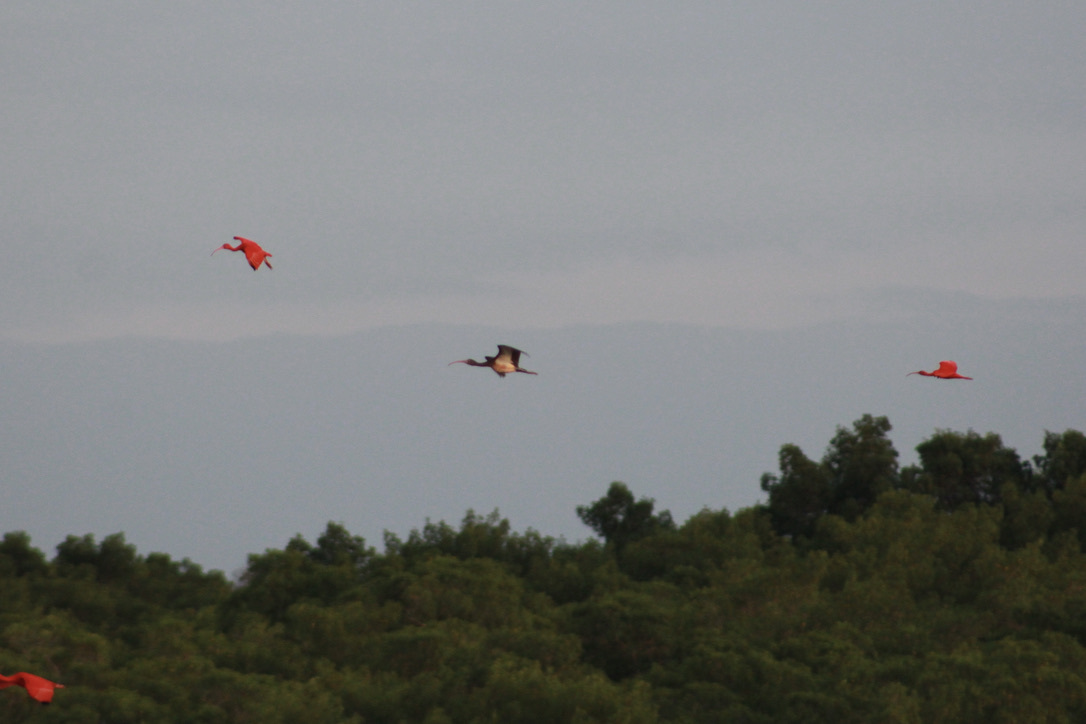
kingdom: Animalia
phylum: Chordata
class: Aves
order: Pelecaniformes
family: Threskiornithidae
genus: Eudocimus
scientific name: Eudocimus ruber
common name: Scarlet ibis
